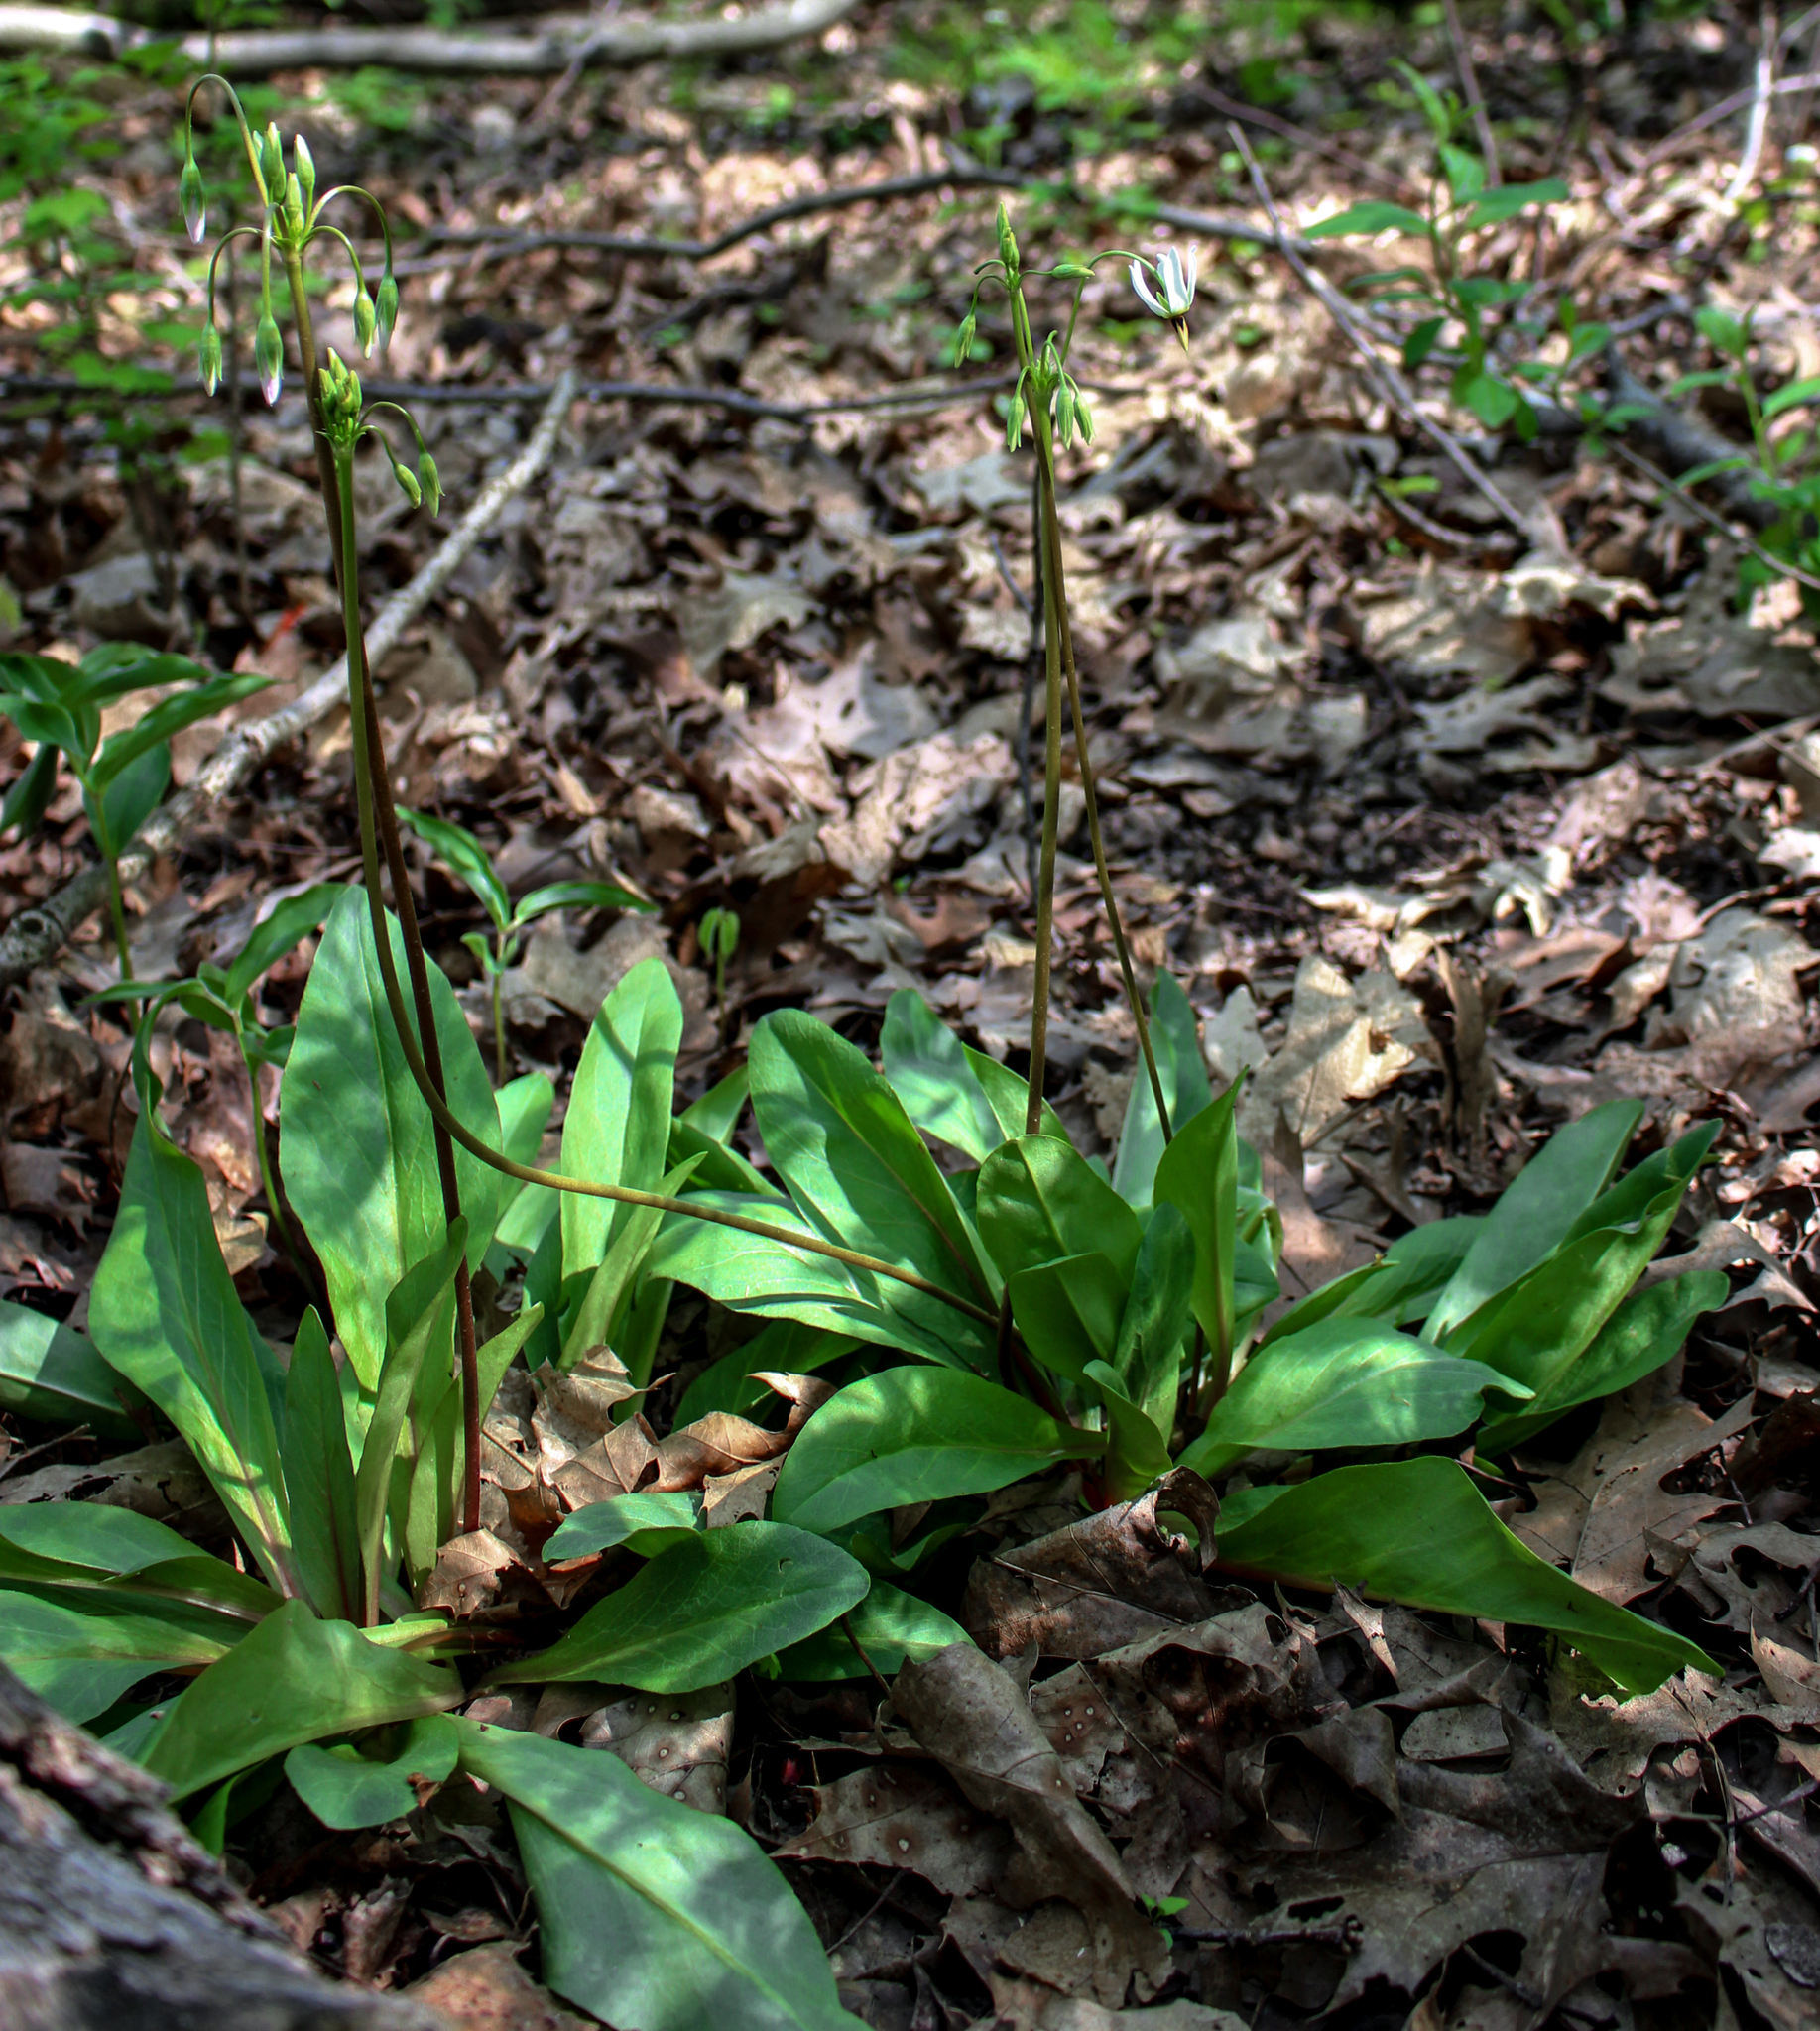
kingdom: Plantae
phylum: Tracheophyta
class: Magnoliopsida
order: Ericales
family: Primulaceae
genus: Dodecatheon
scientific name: Dodecatheon meadia
